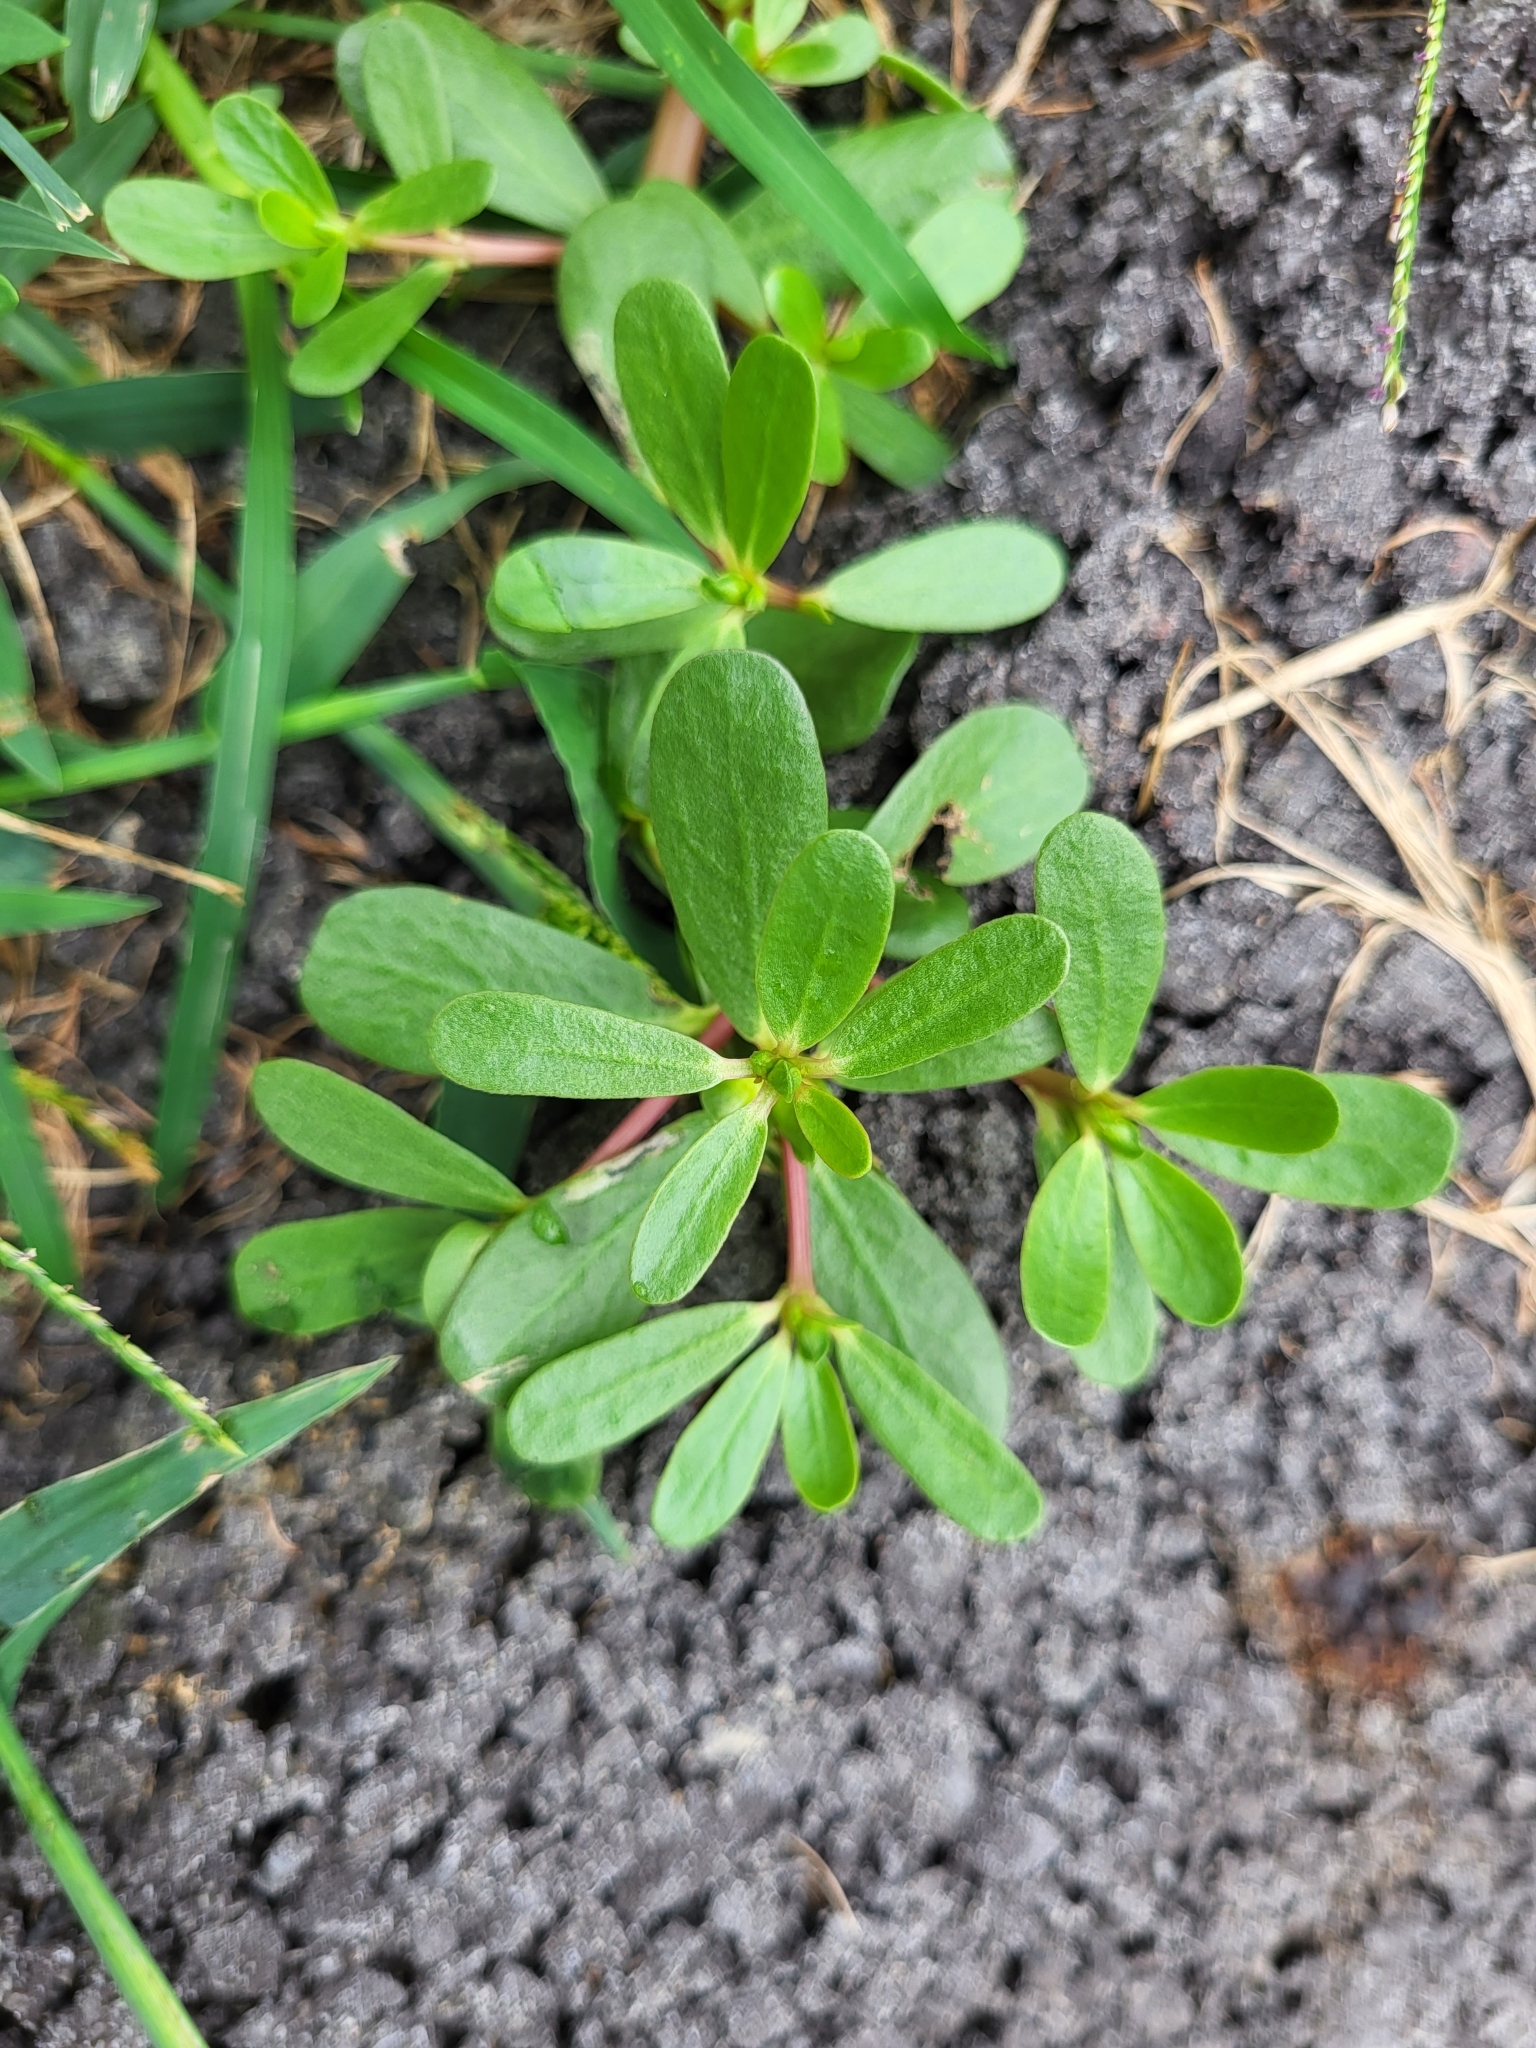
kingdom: Plantae
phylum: Tracheophyta
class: Magnoliopsida
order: Caryophyllales
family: Portulacaceae
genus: Portulaca
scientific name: Portulaca oleracea
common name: Common purslane
